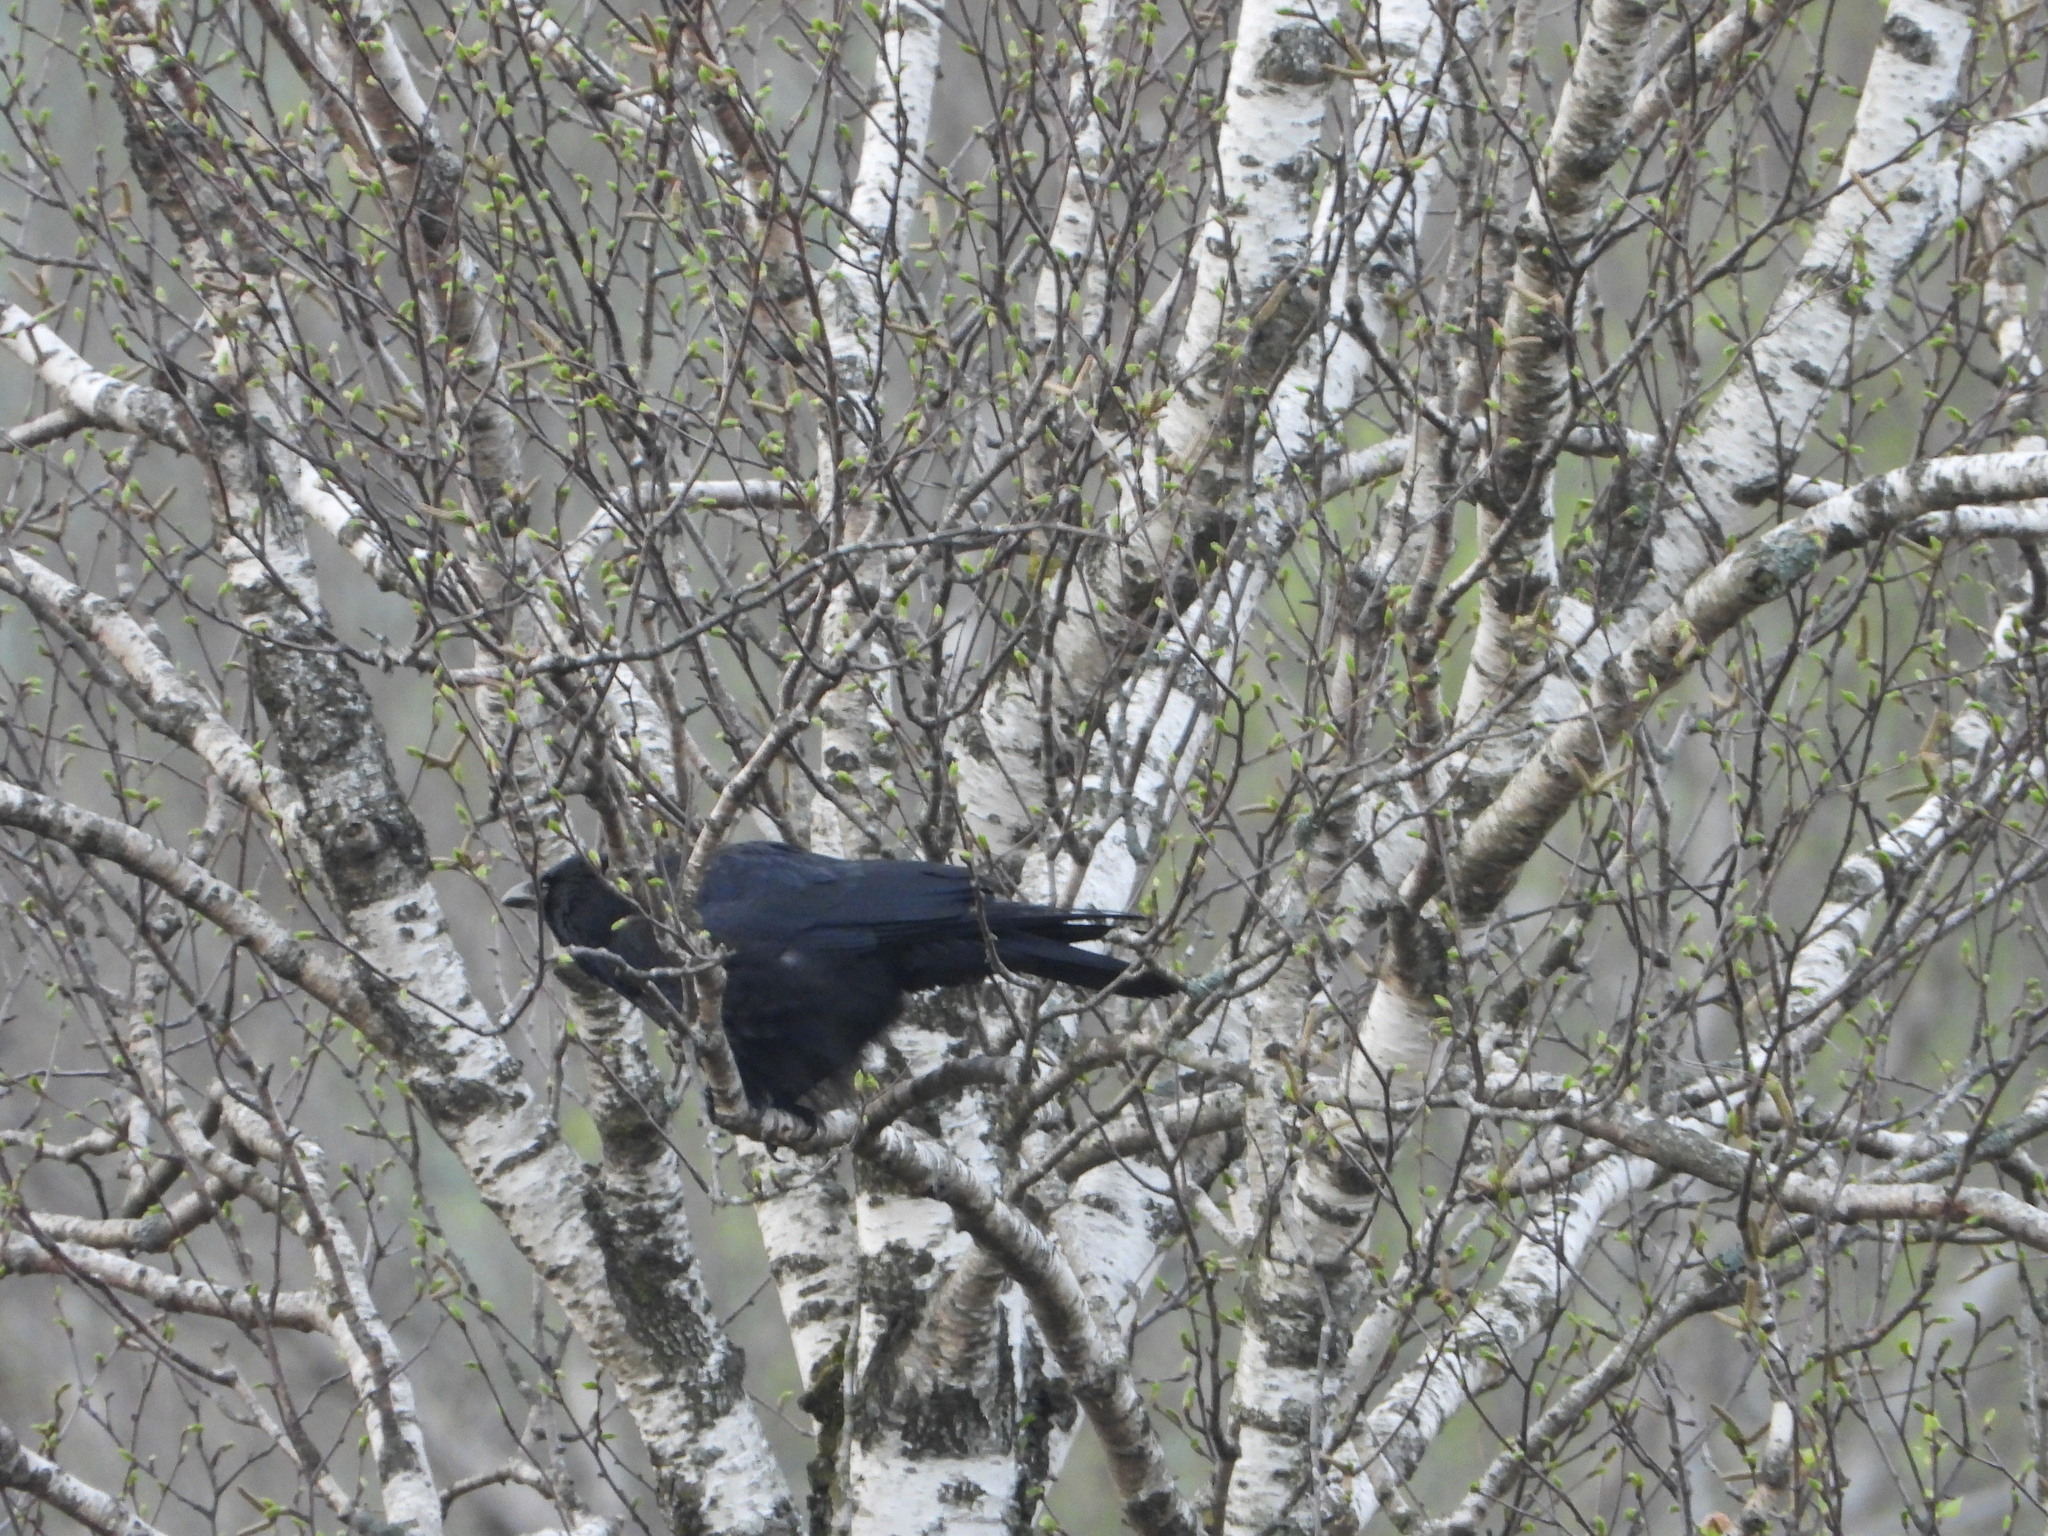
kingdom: Animalia
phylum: Chordata
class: Aves
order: Passeriformes
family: Corvidae
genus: Corvus
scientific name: Corvus corone
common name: Carrion crow
